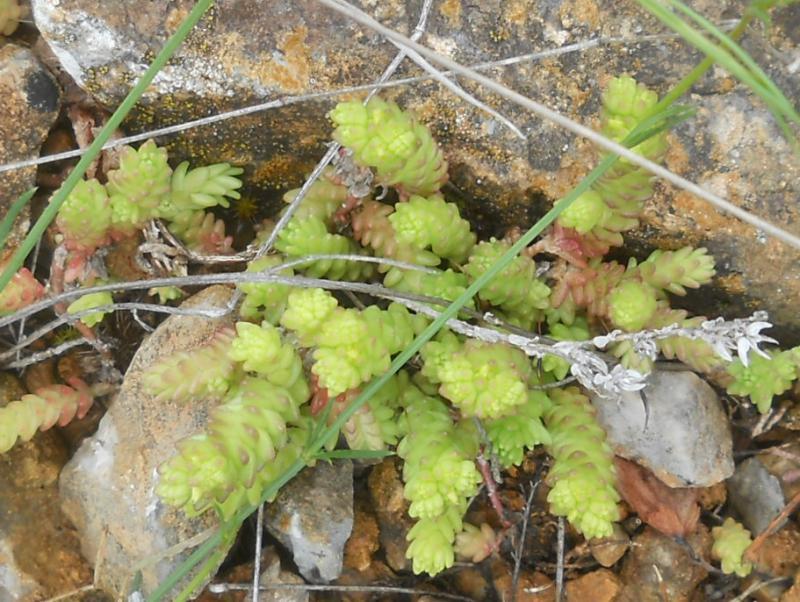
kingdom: Plantae
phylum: Tracheophyta
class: Magnoliopsida
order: Saxifragales
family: Crassulaceae
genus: Sedum
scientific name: Sedum acre
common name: Biting stonecrop
